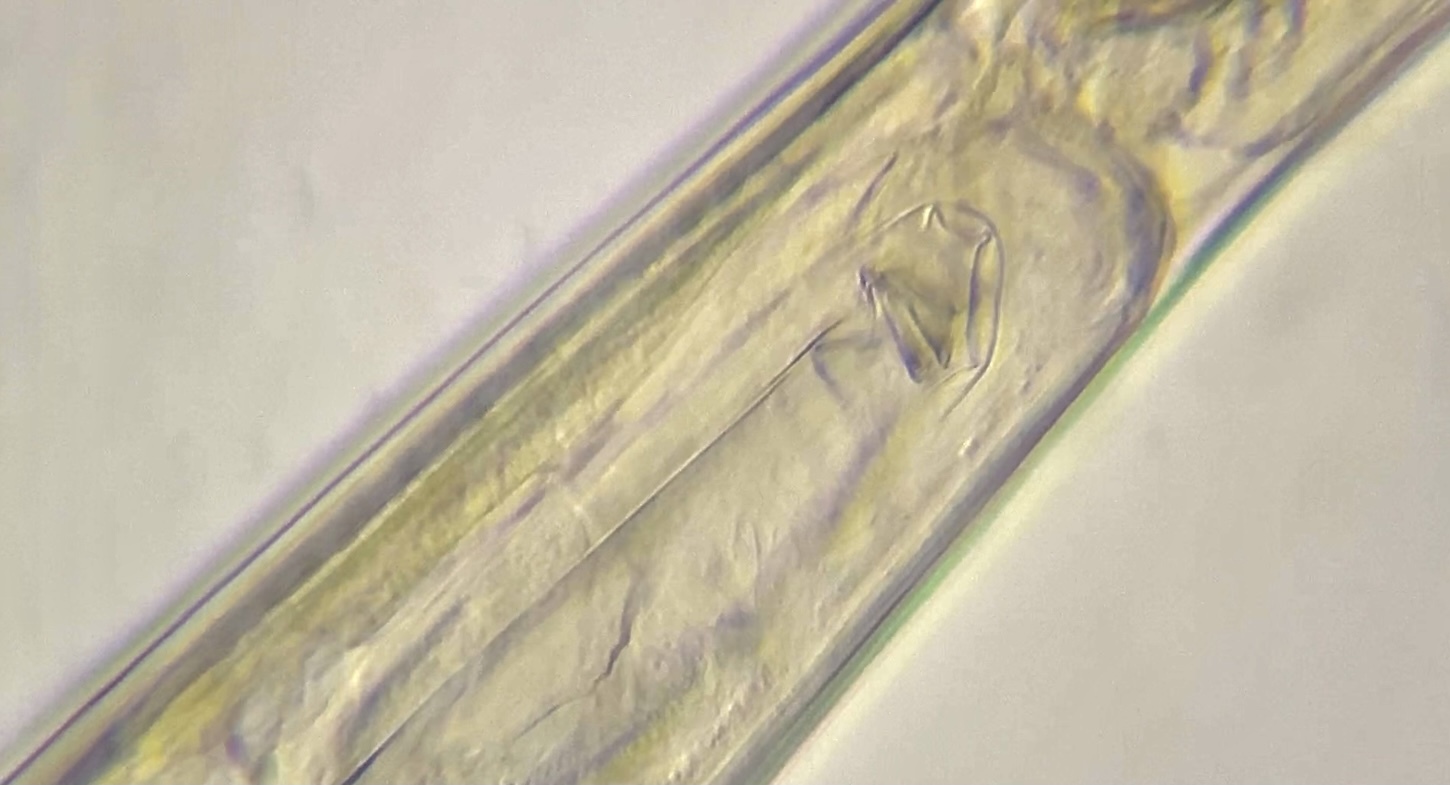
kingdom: Animalia
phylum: Rotifera
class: Eurotatoria
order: Bdelloidea
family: Philodinidae
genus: Rotaria
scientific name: Rotaria neptunia
